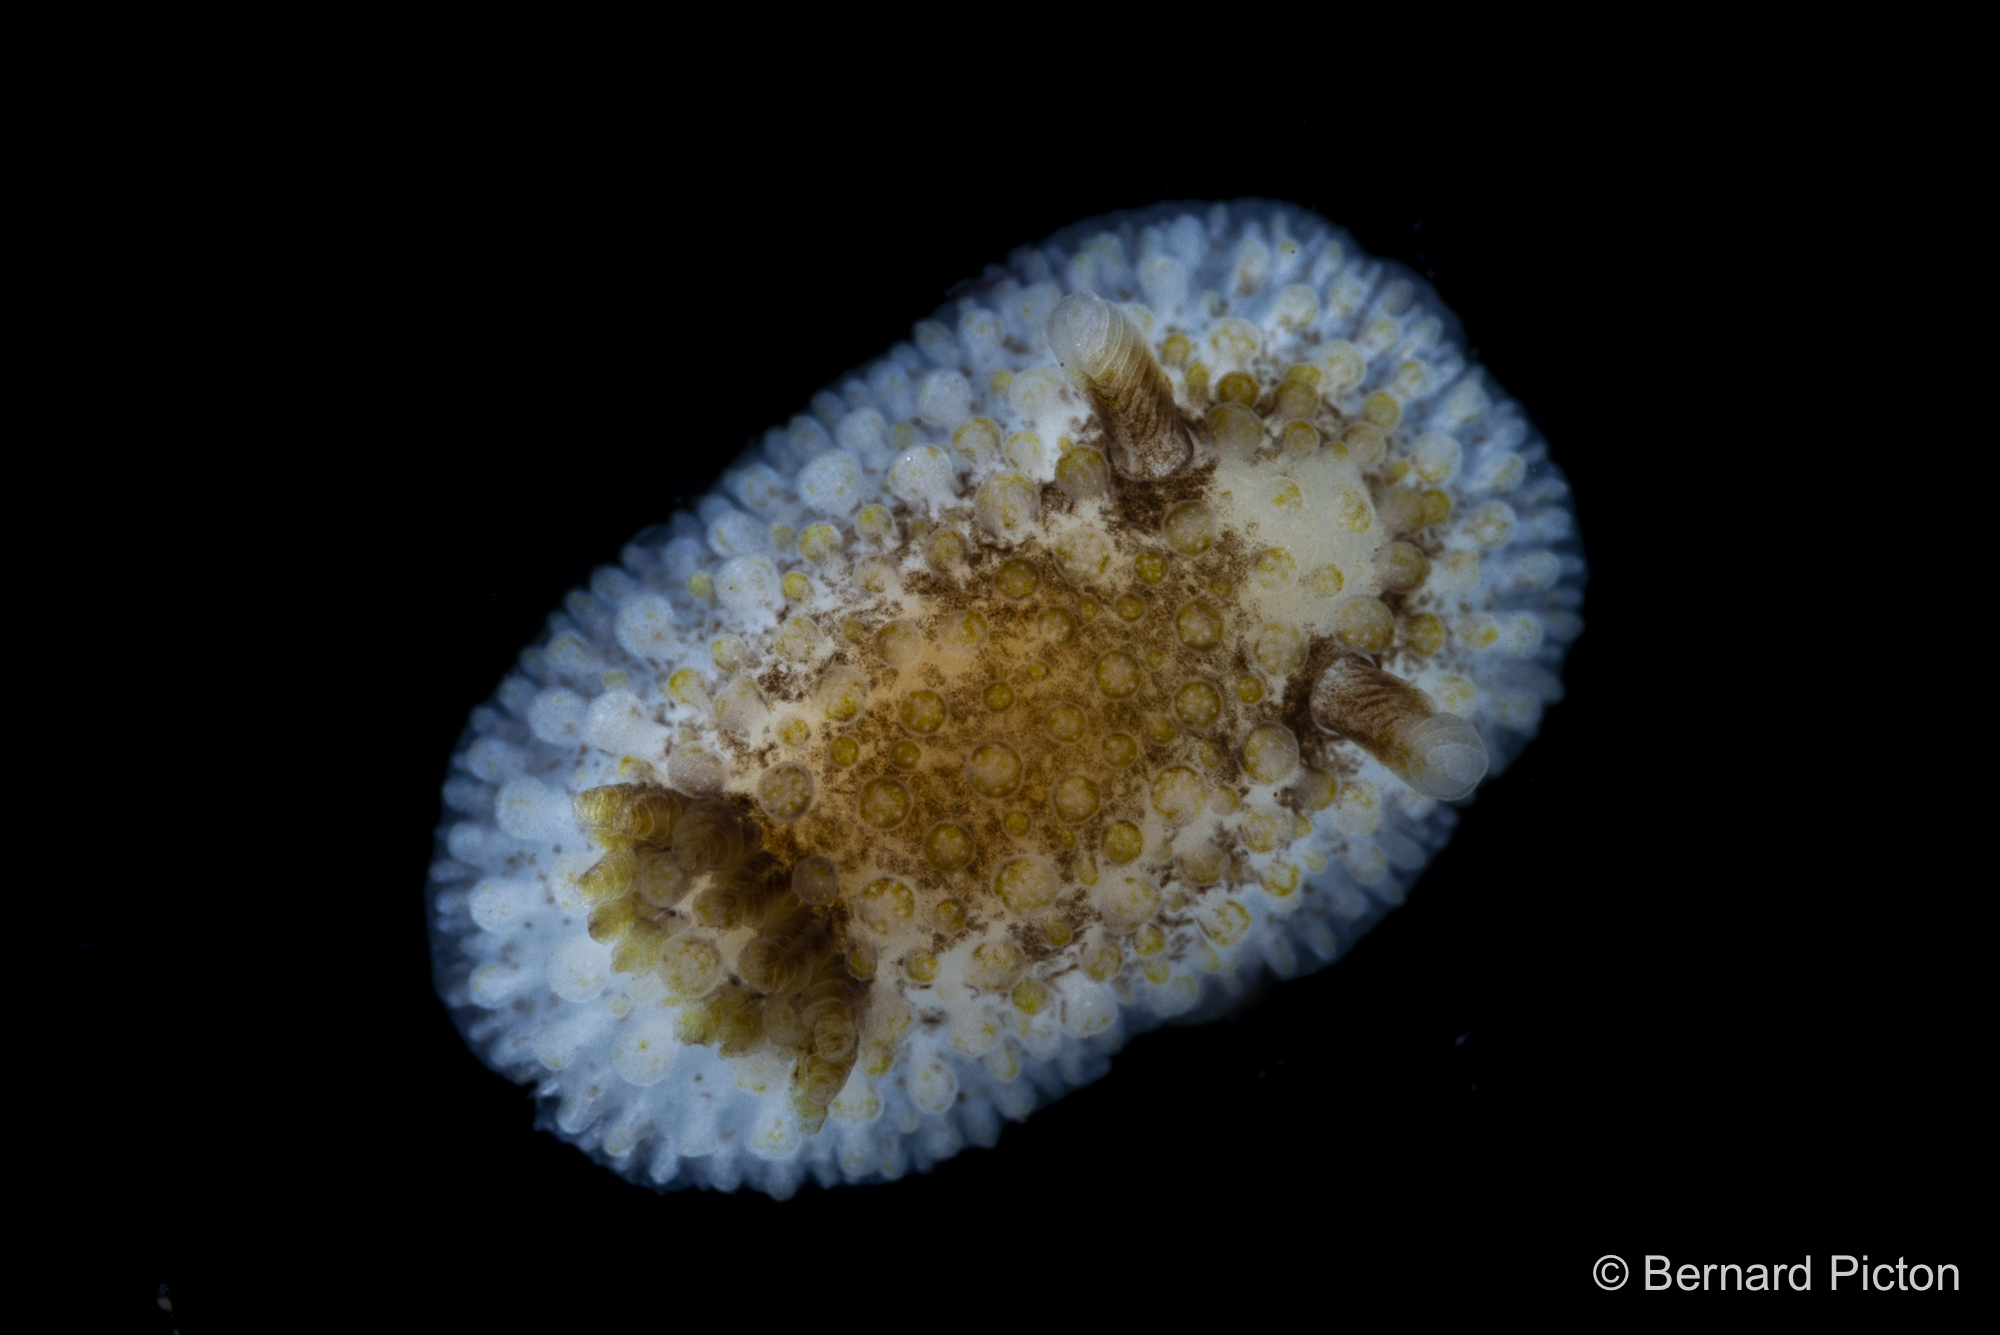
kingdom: Animalia
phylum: Mollusca
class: Gastropoda
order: Nudibranchia
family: Onchidorididae
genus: Onchidoris
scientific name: Onchidoris bilamellata
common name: Barnacle-eating onchidoris
